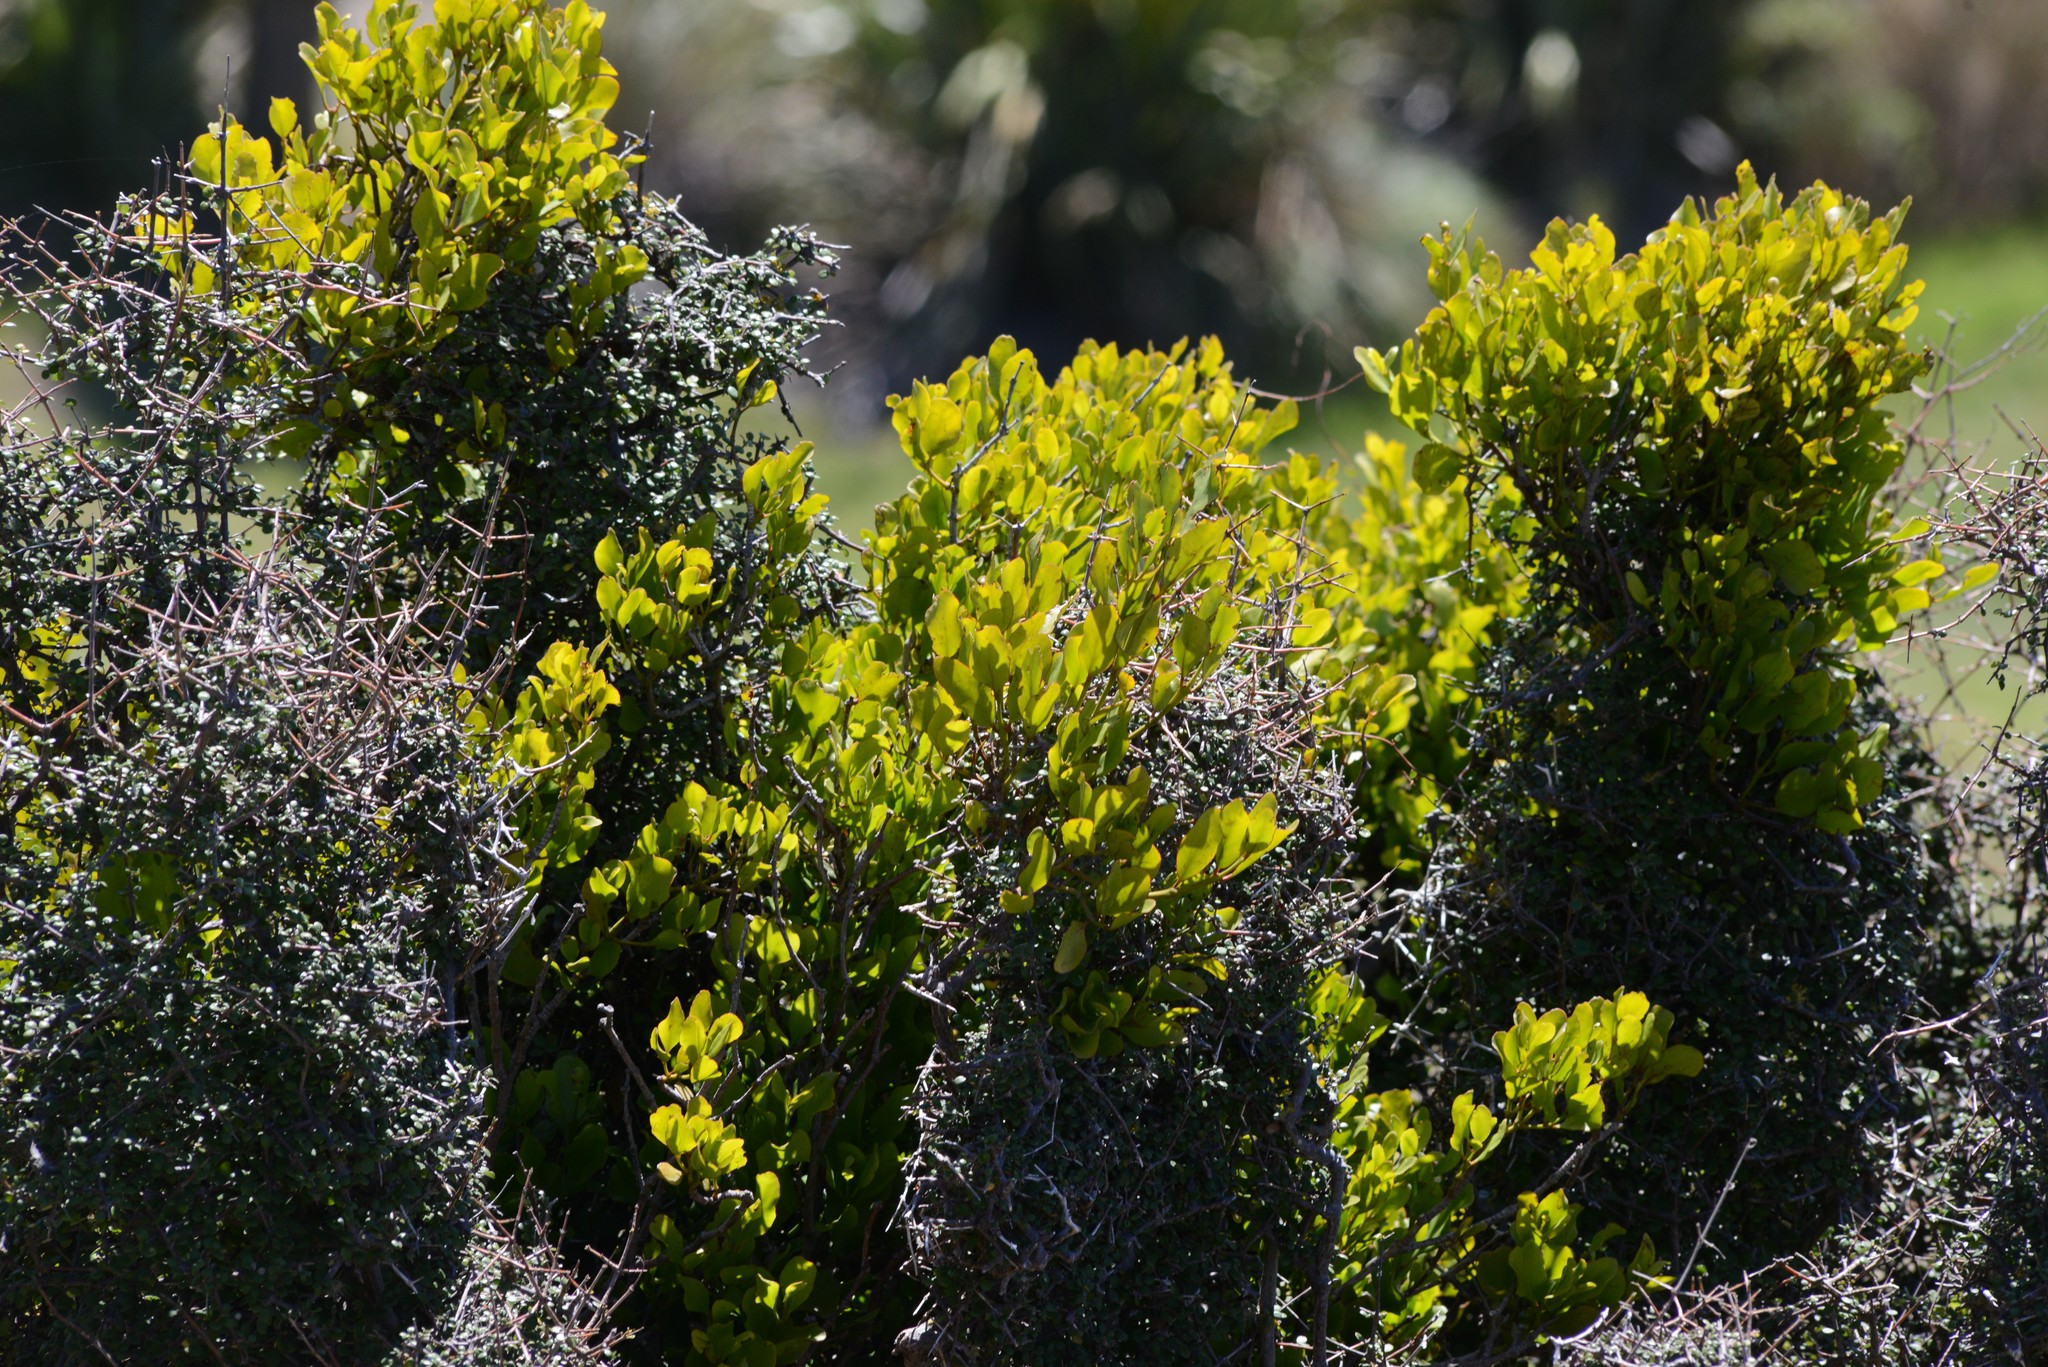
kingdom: Plantae
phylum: Tracheophyta
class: Magnoliopsida
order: Santalales
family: Loranthaceae
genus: Ileostylus
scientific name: Ileostylus micranthus
